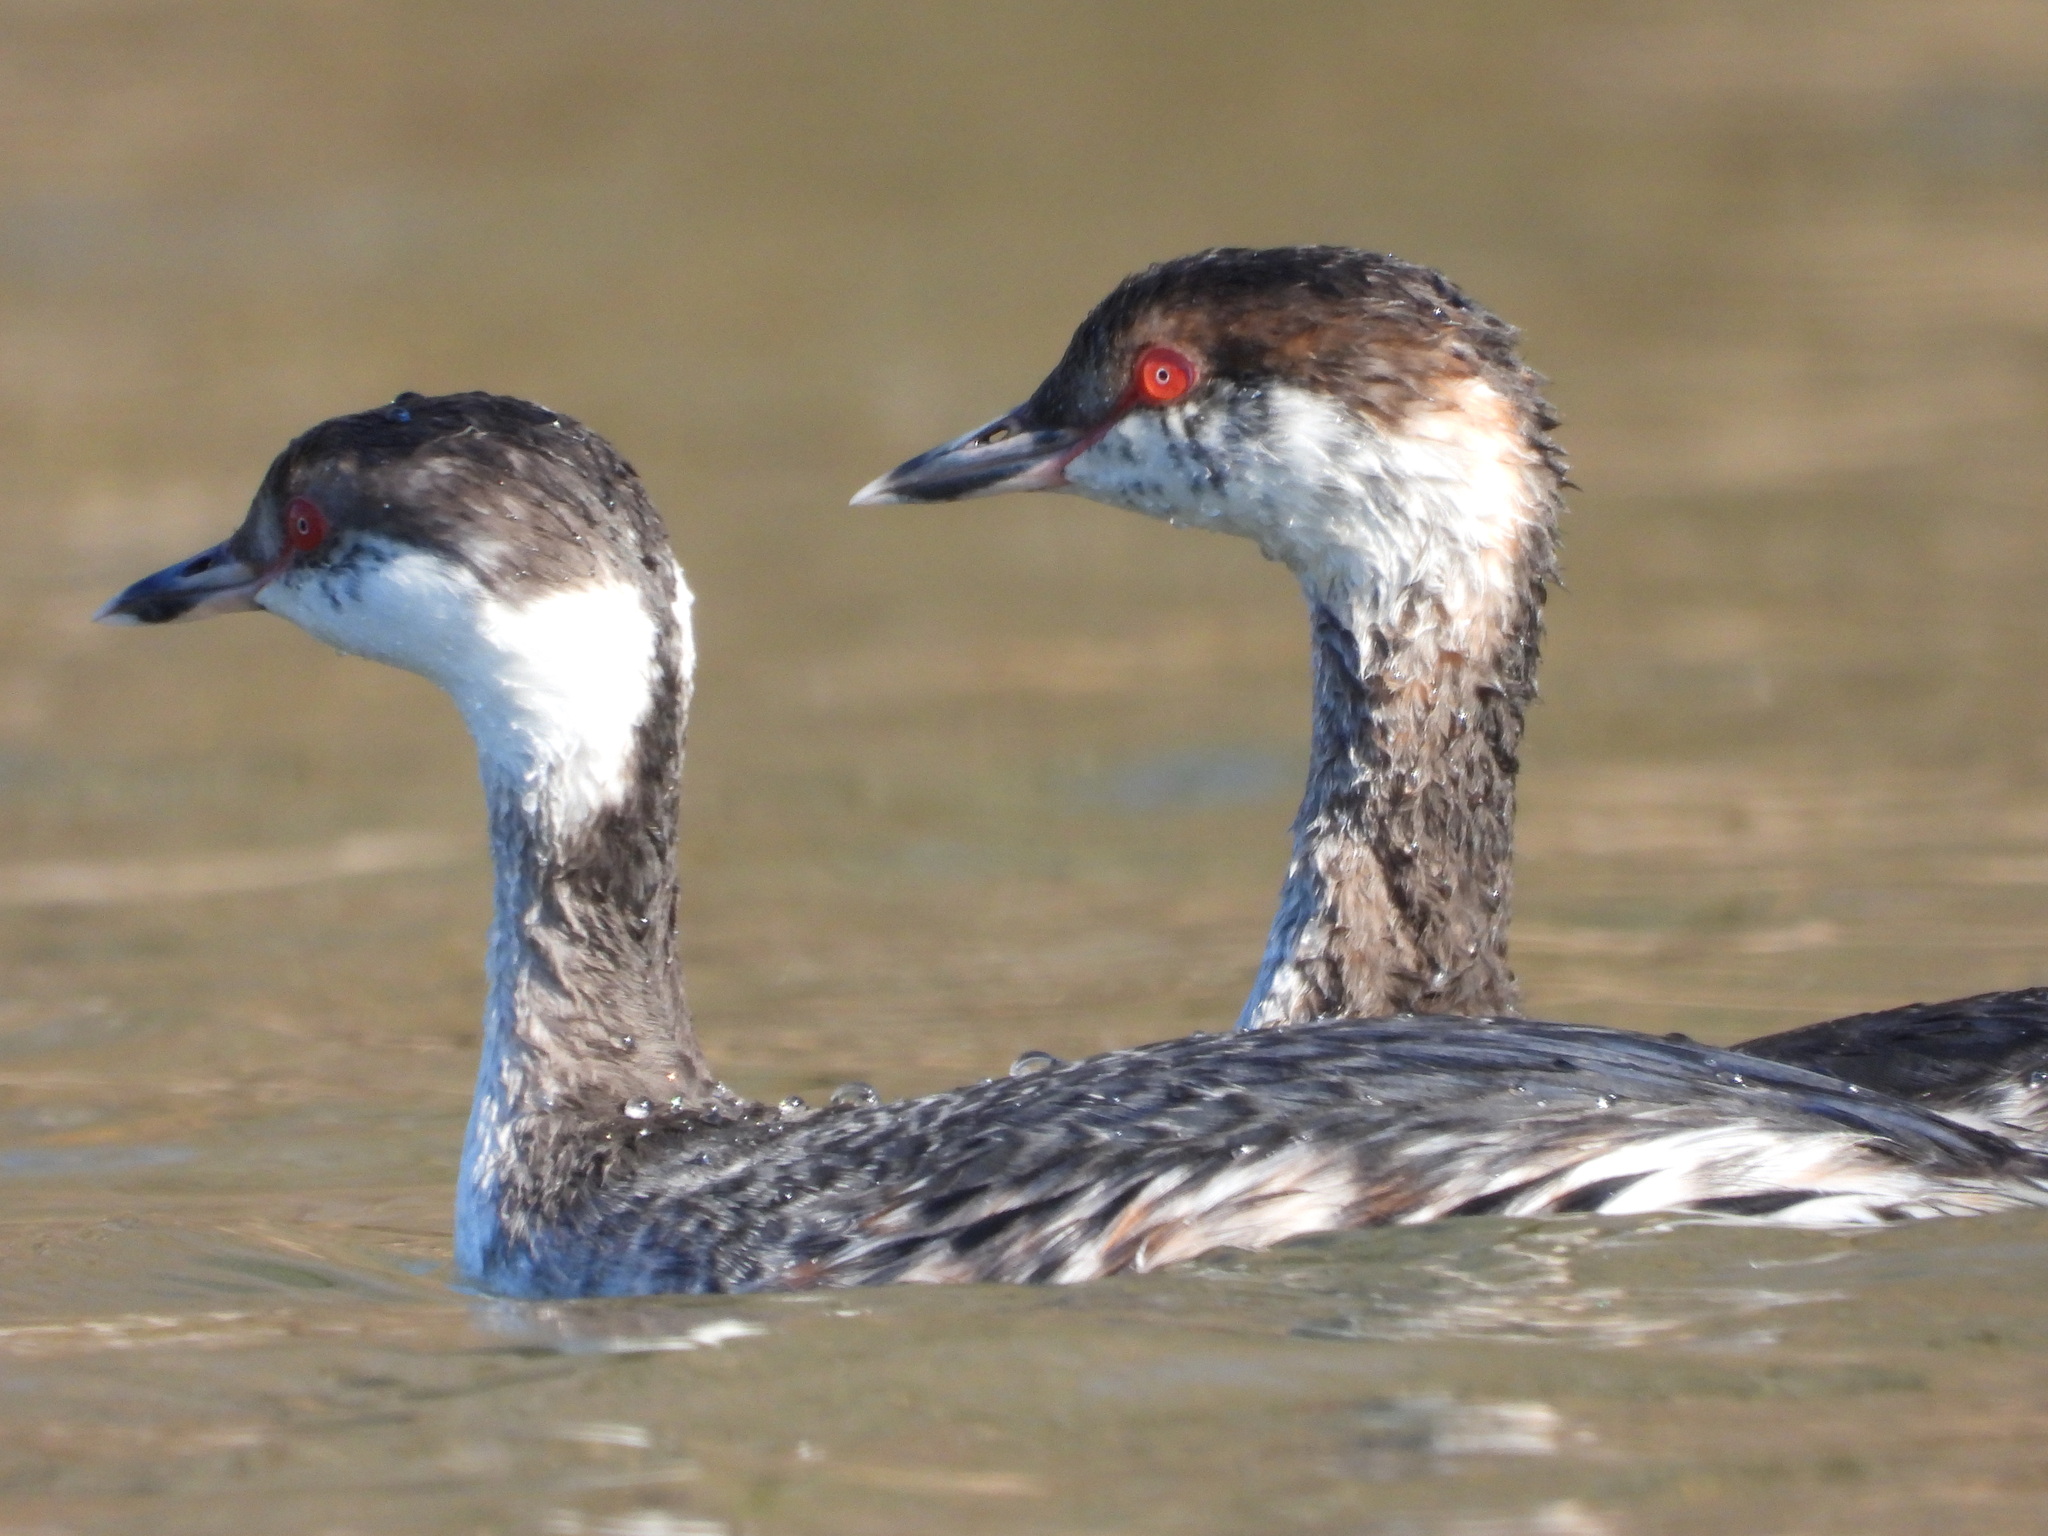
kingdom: Animalia
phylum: Chordata
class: Aves
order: Podicipediformes
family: Podicipedidae
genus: Podiceps
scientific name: Podiceps auritus
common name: Horned grebe
